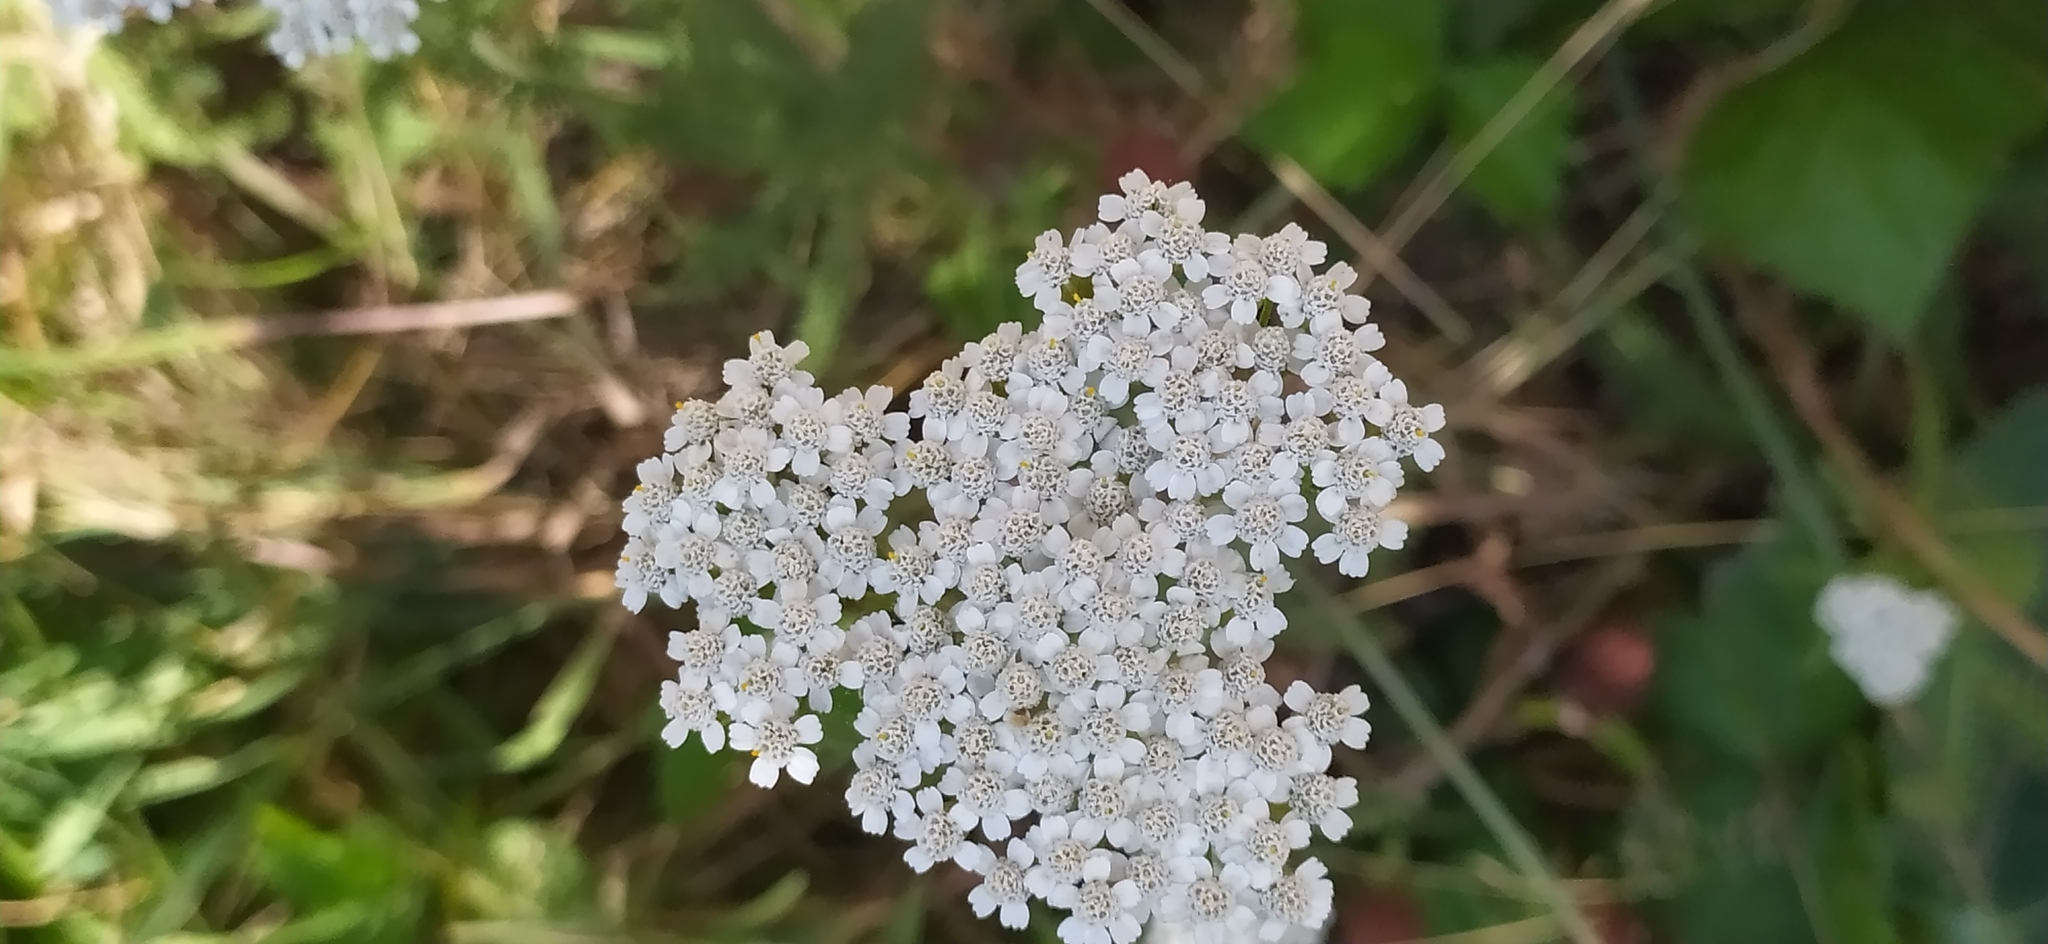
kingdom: Plantae
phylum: Tracheophyta
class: Magnoliopsida
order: Asterales
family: Asteraceae
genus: Achillea
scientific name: Achillea millefolium
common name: Yarrow
